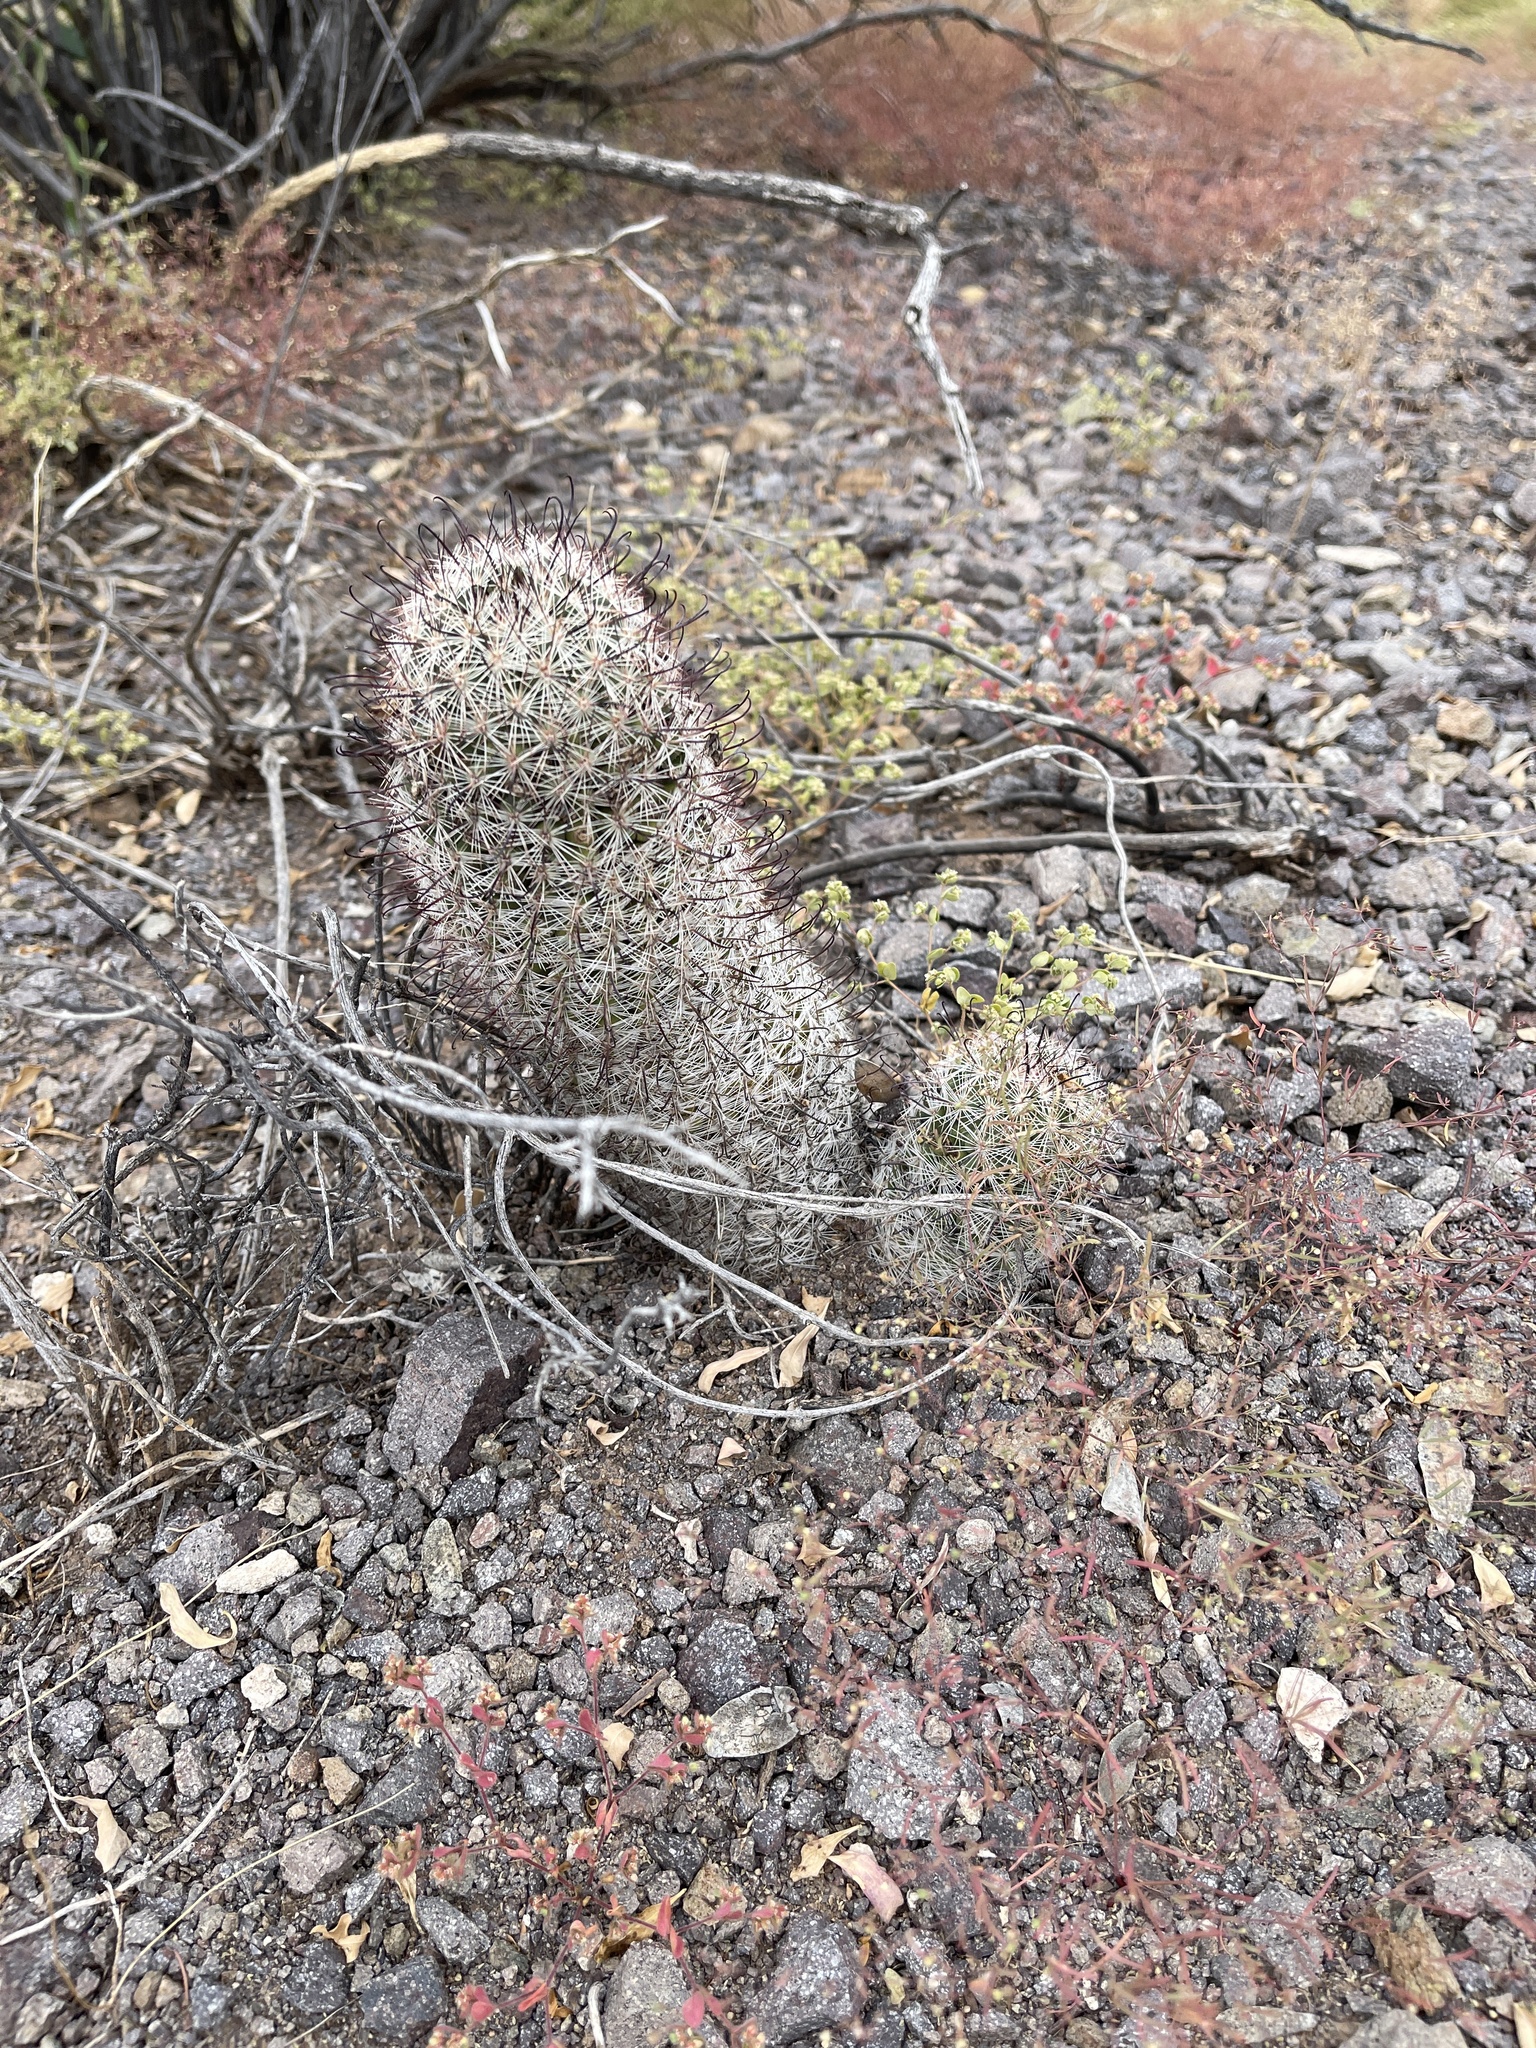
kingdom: Plantae
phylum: Tracheophyta
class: Magnoliopsida
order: Caryophyllales
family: Cactaceae
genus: Cochemiea
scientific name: Cochemiea grahamii
